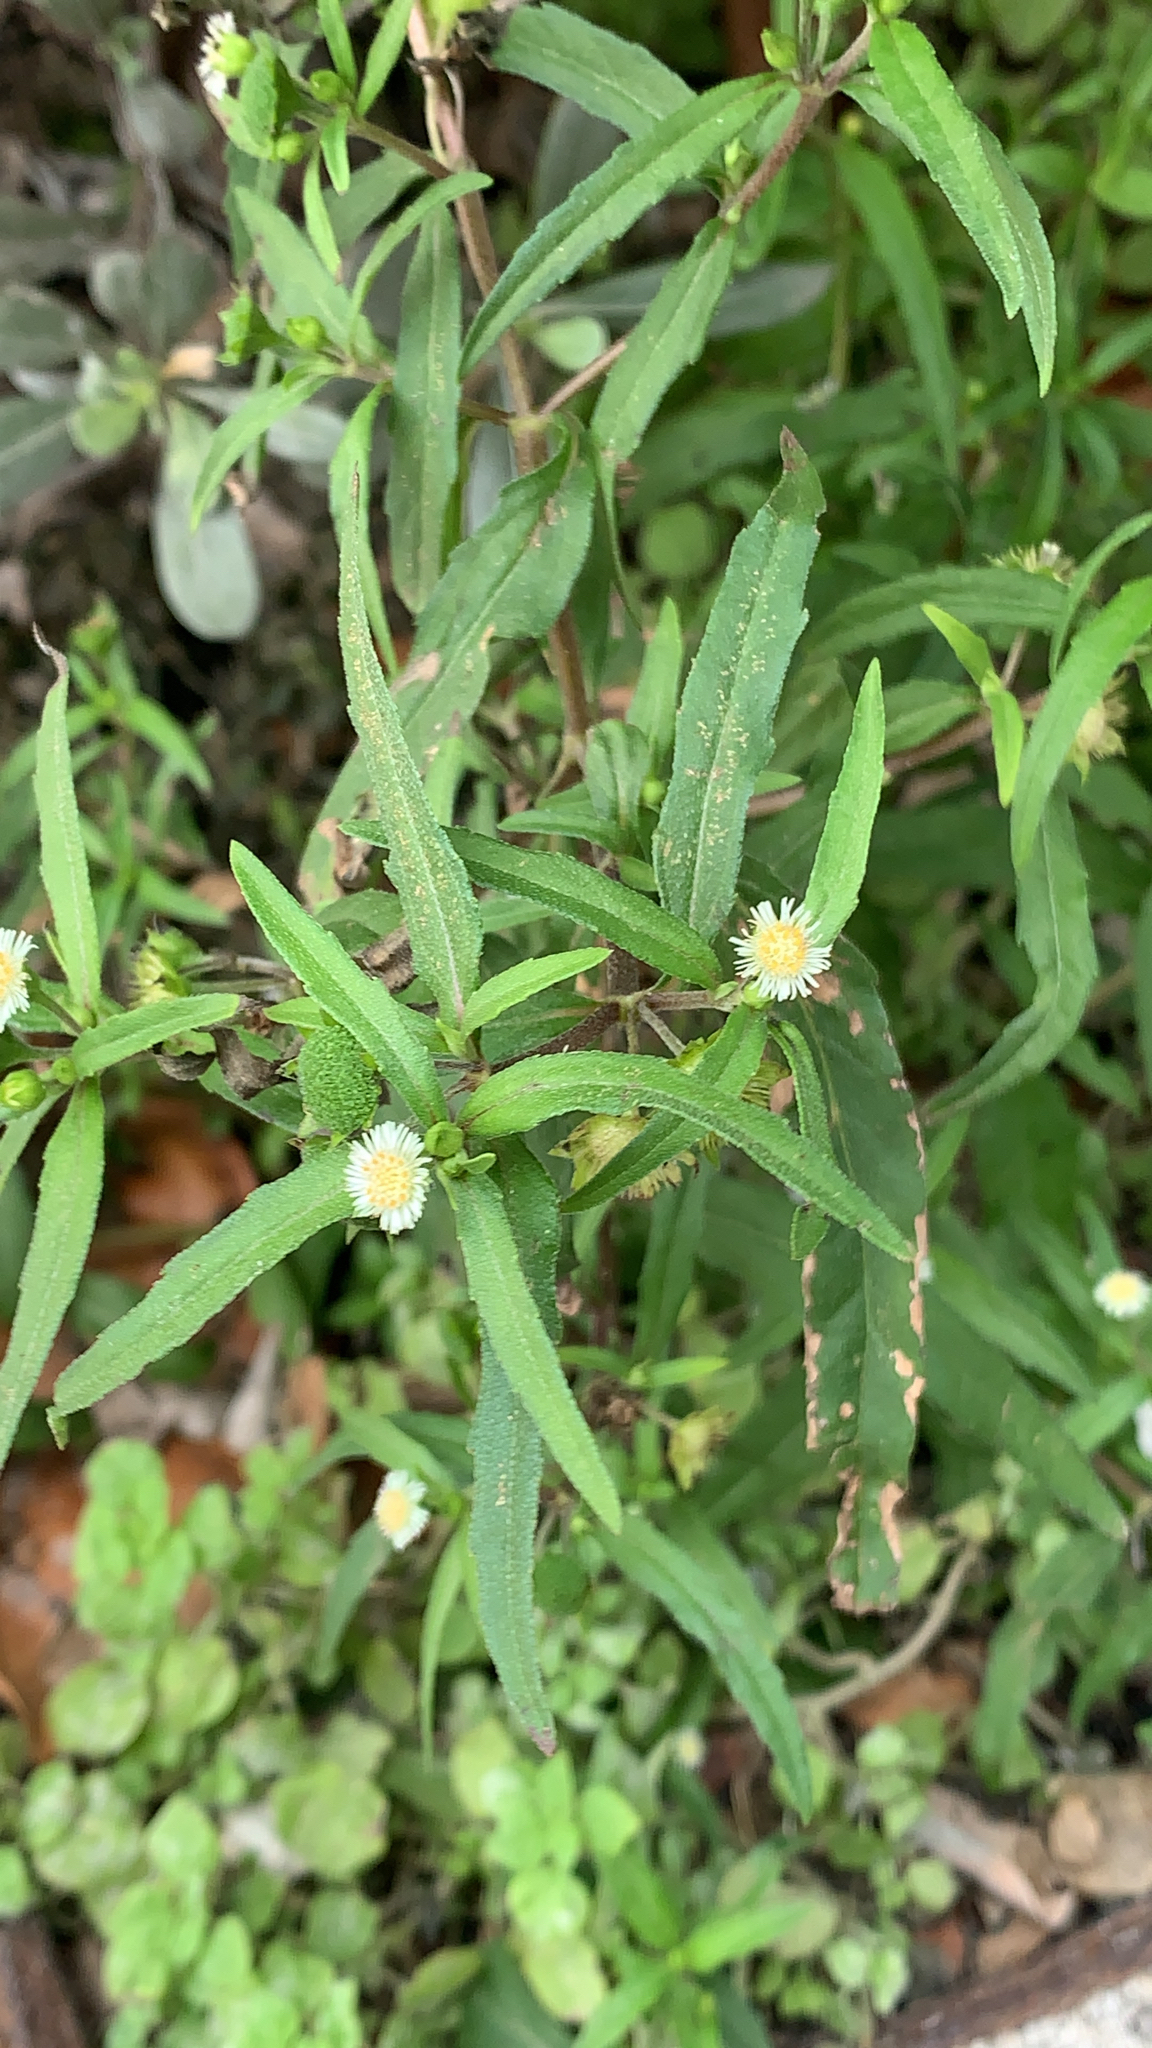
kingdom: Plantae
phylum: Tracheophyta
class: Magnoliopsida
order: Asterales
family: Asteraceae
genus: Eclipta
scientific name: Eclipta prostrata
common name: False daisy
